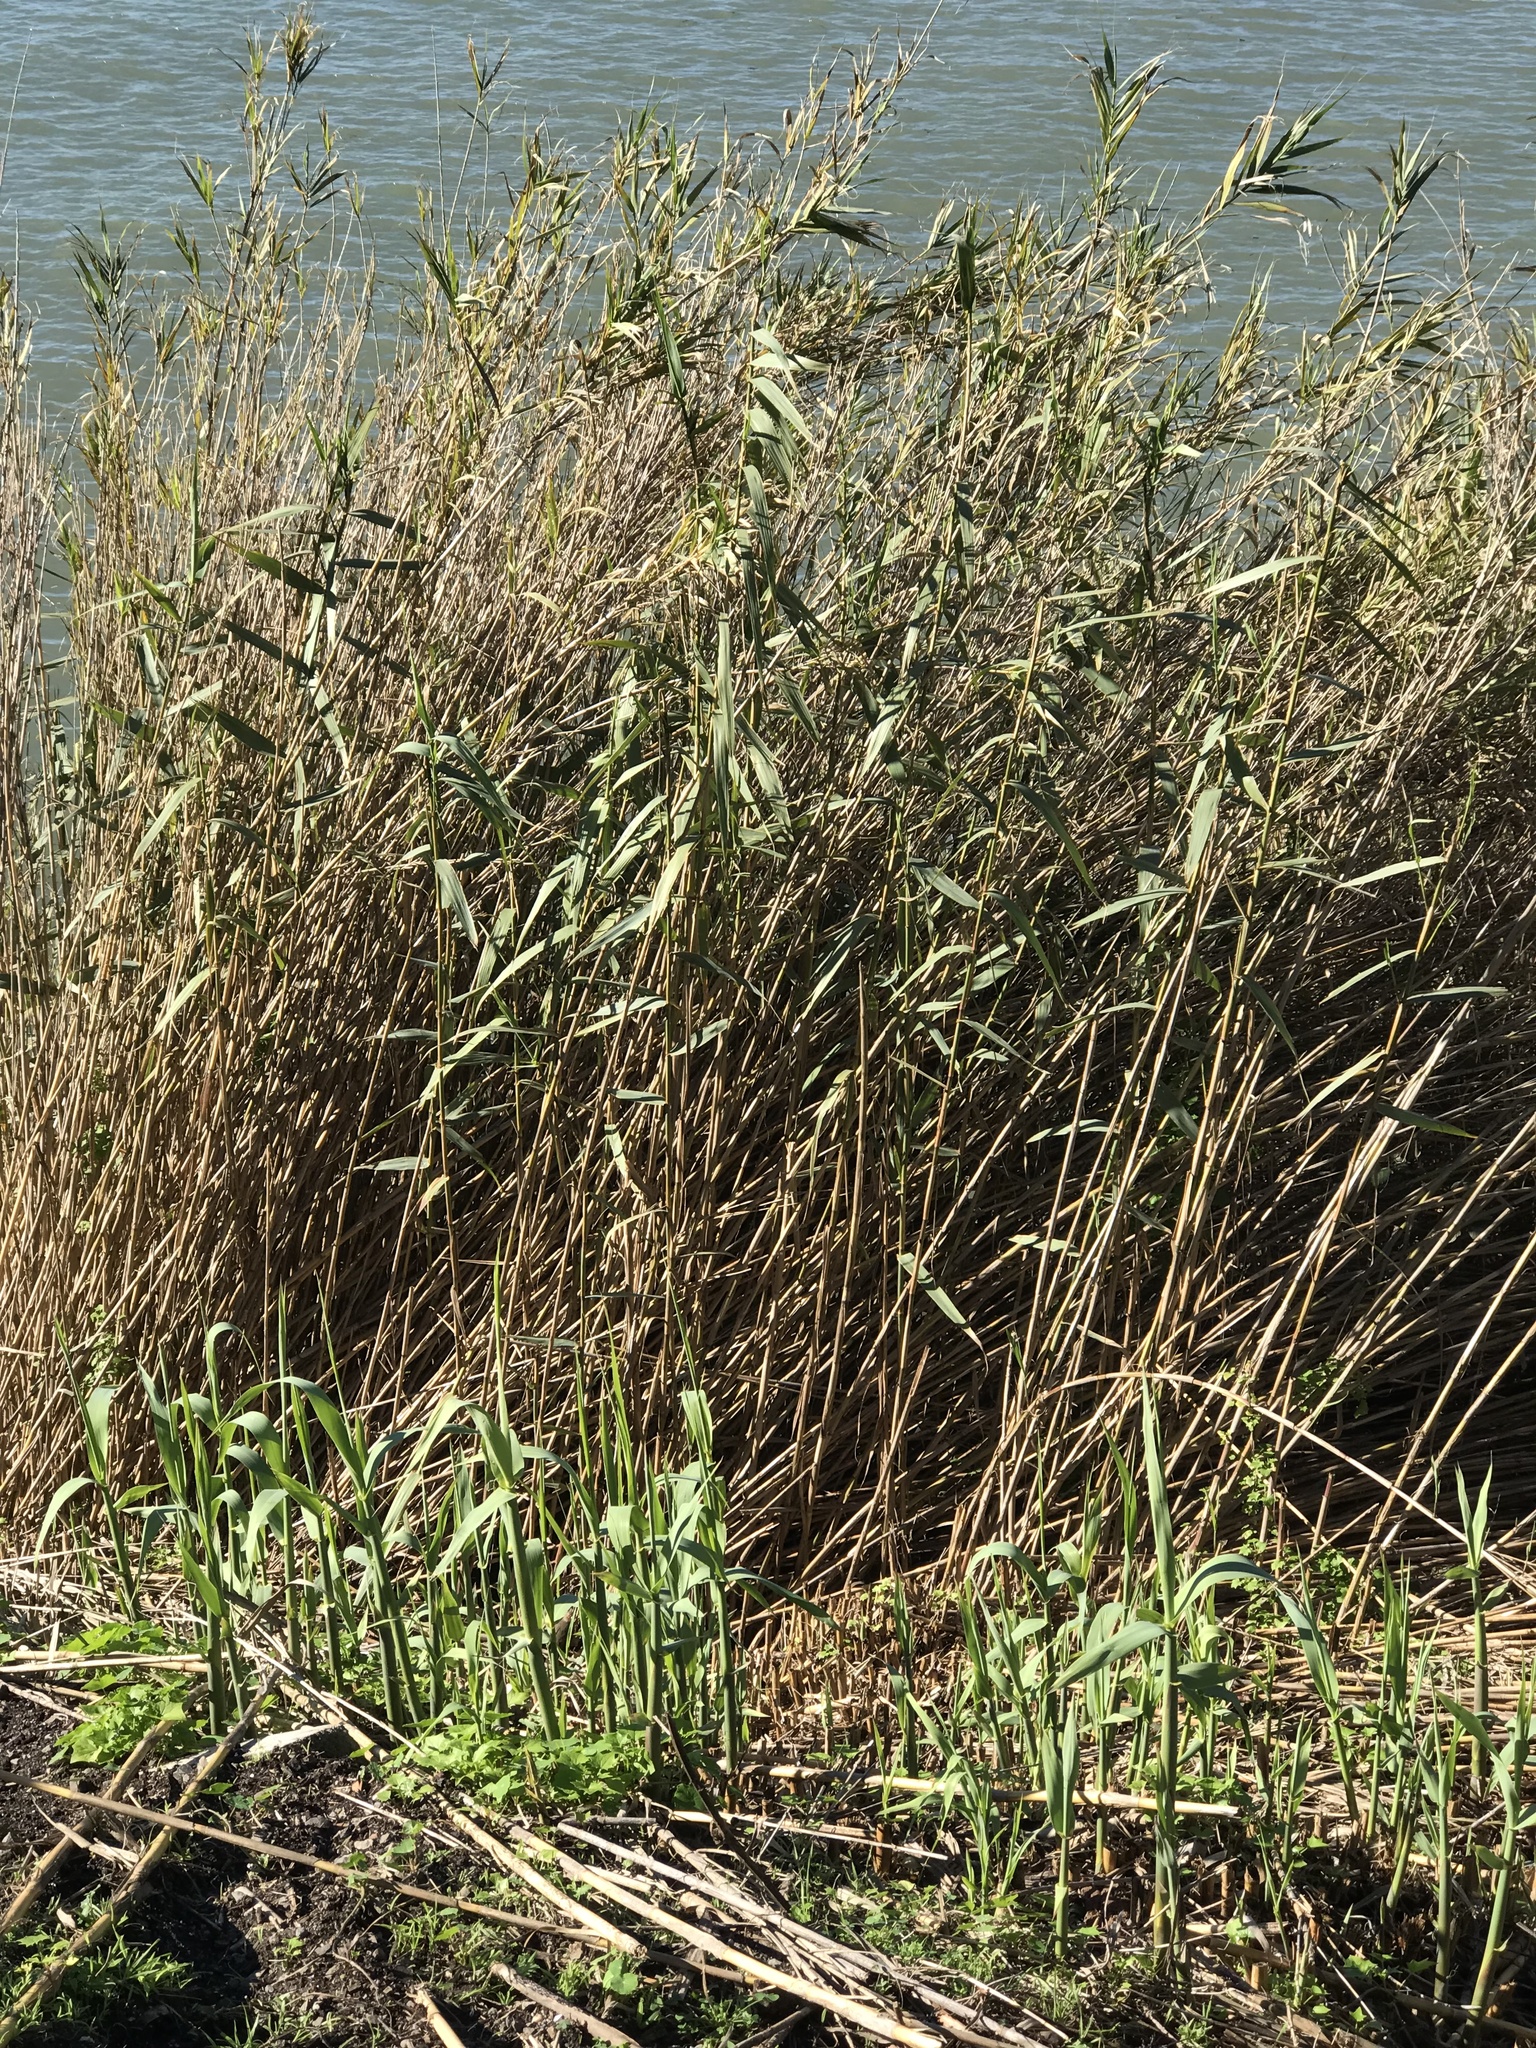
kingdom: Plantae
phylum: Tracheophyta
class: Liliopsida
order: Poales
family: Poaceae
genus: Arundo
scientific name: Arundo donax
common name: Giant reed
